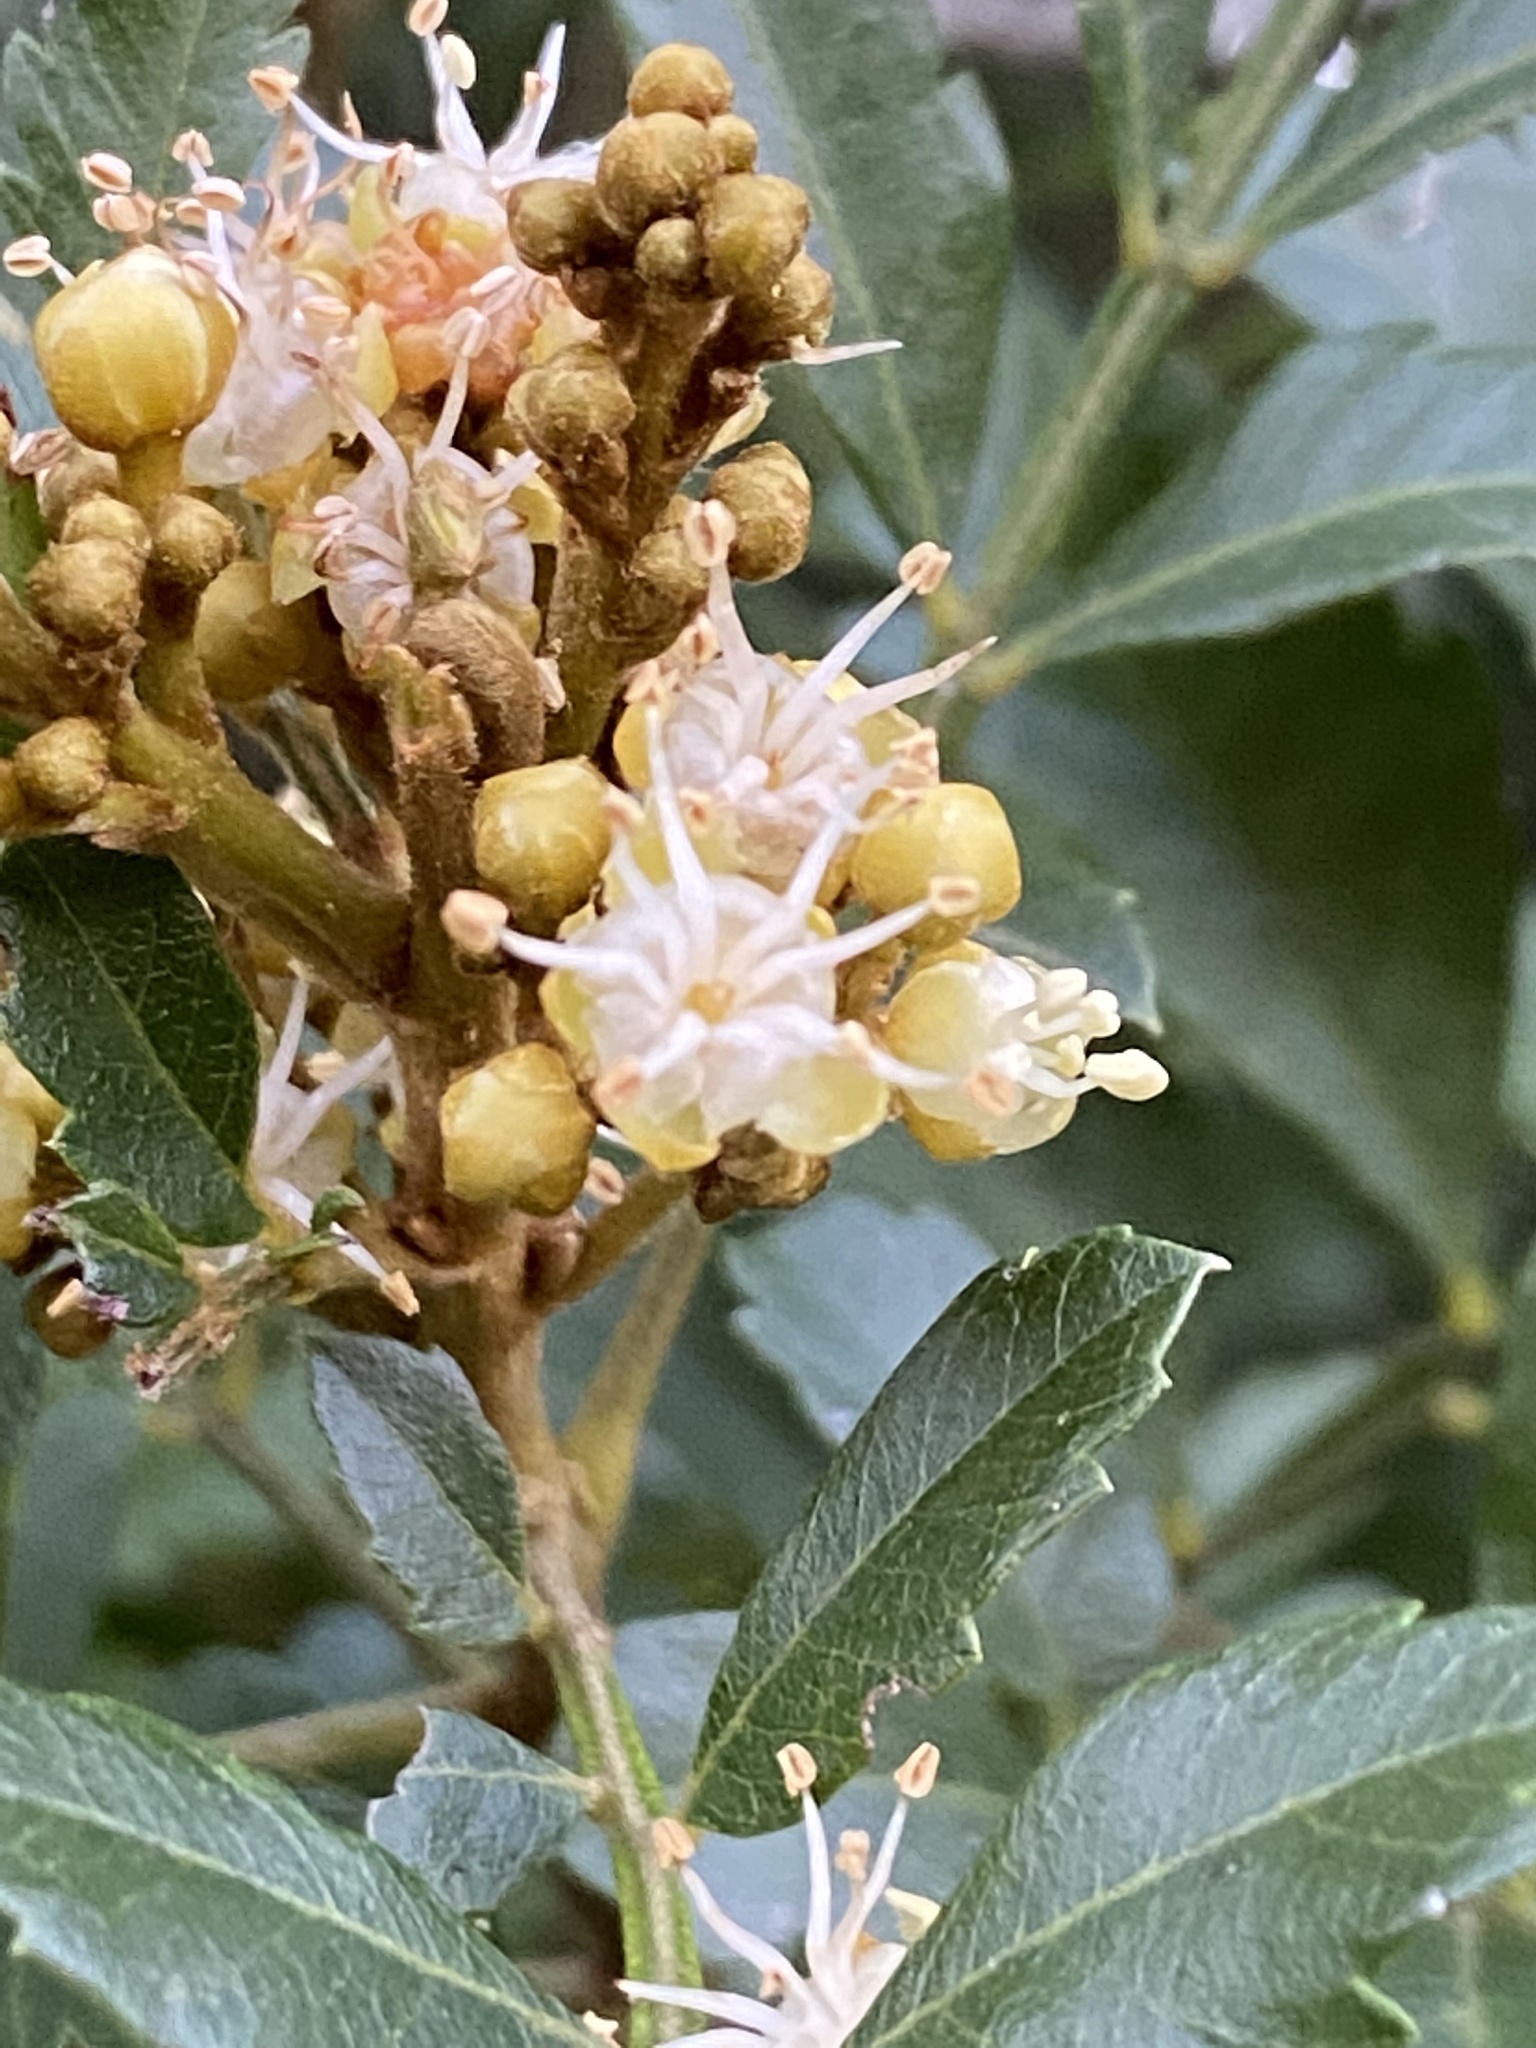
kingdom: Plantae
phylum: Tracheophyta
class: Magnoliopsida
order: Sapindales
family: Sapindaceae
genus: Hippobromus
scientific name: Hippobromus pauciflorus
